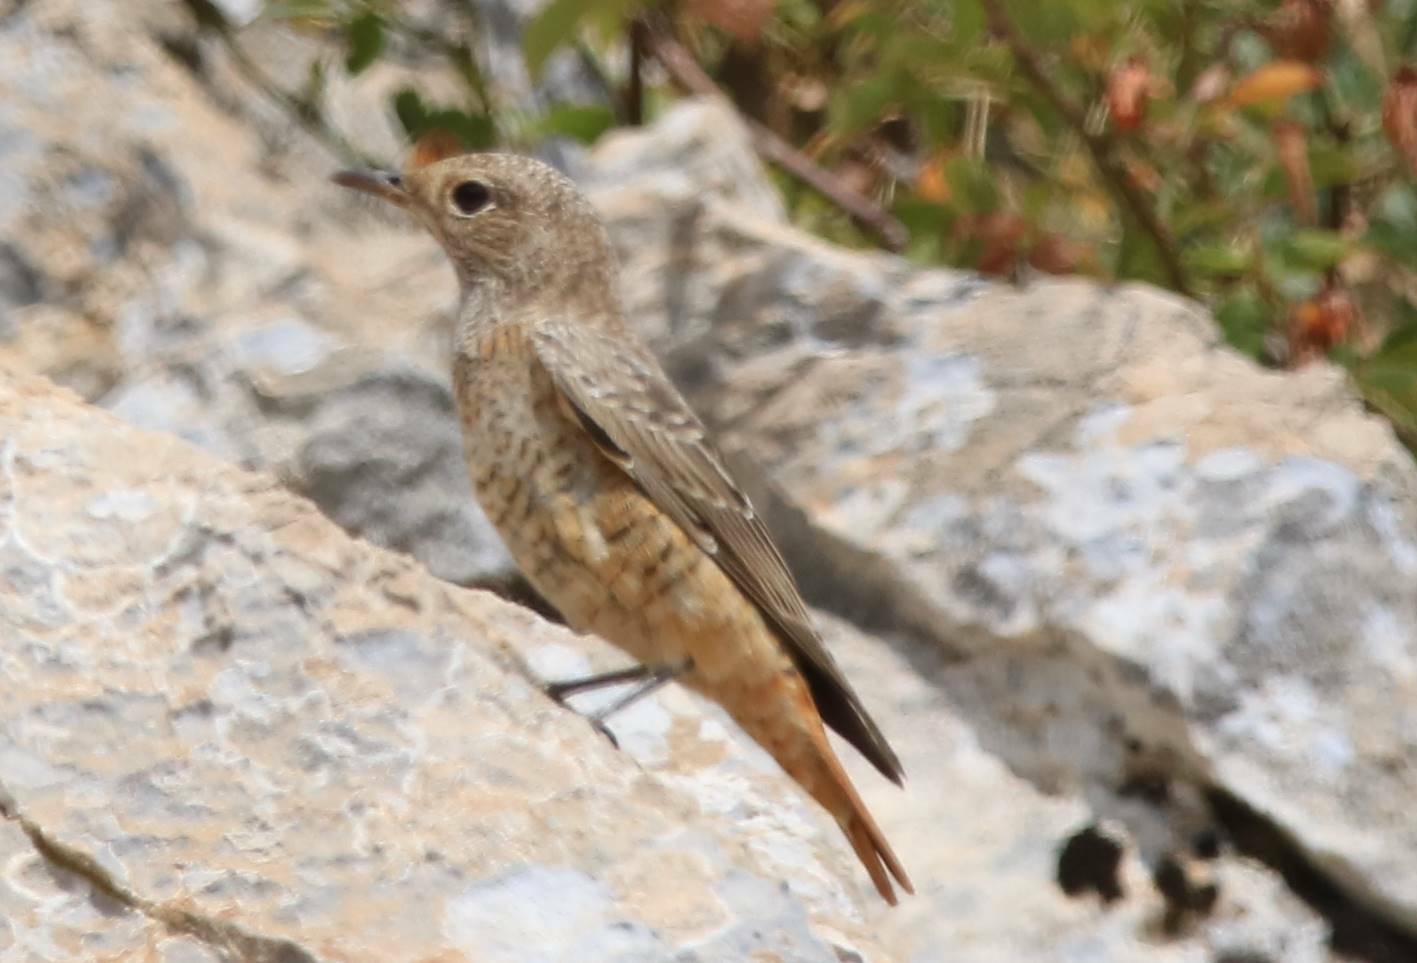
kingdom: Animalia
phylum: Chordata
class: Aves
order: Passeriformes
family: Muscicapidae
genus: Monticola
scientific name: Monticola saxatilis
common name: Rufous-tailed rock thrush
